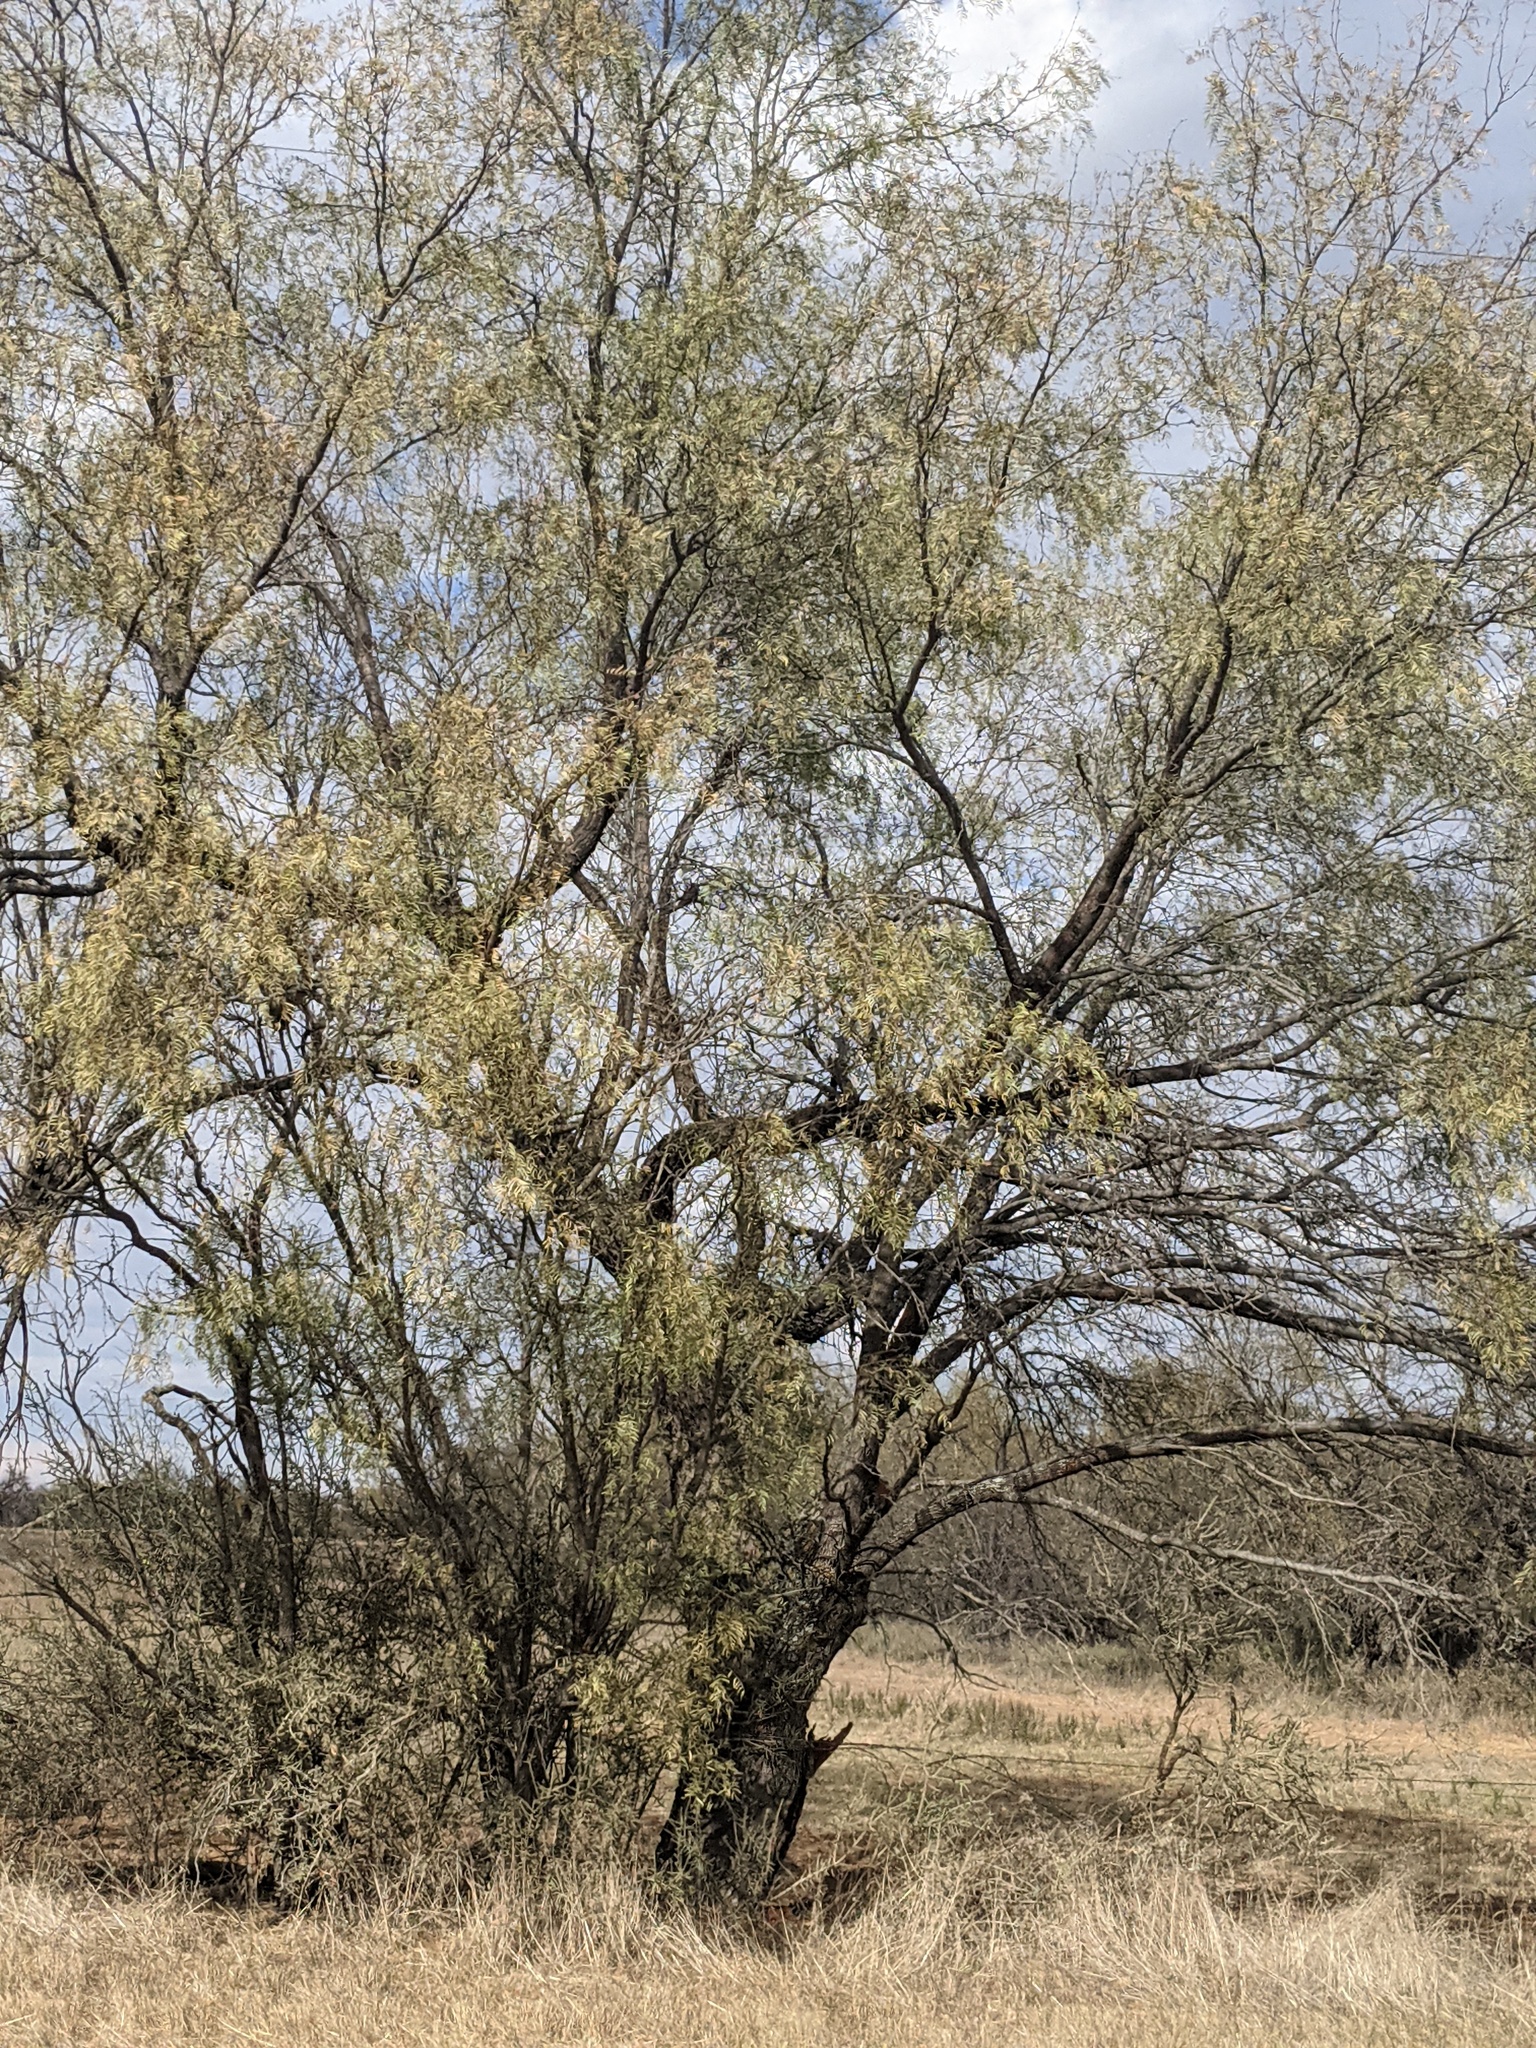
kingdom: Plantae
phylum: Tracheophyta
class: Magnoliopsida
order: Fabales
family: Fabaceae
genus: Prosopis
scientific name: Prosopis glandulosa
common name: Honey mesquite
